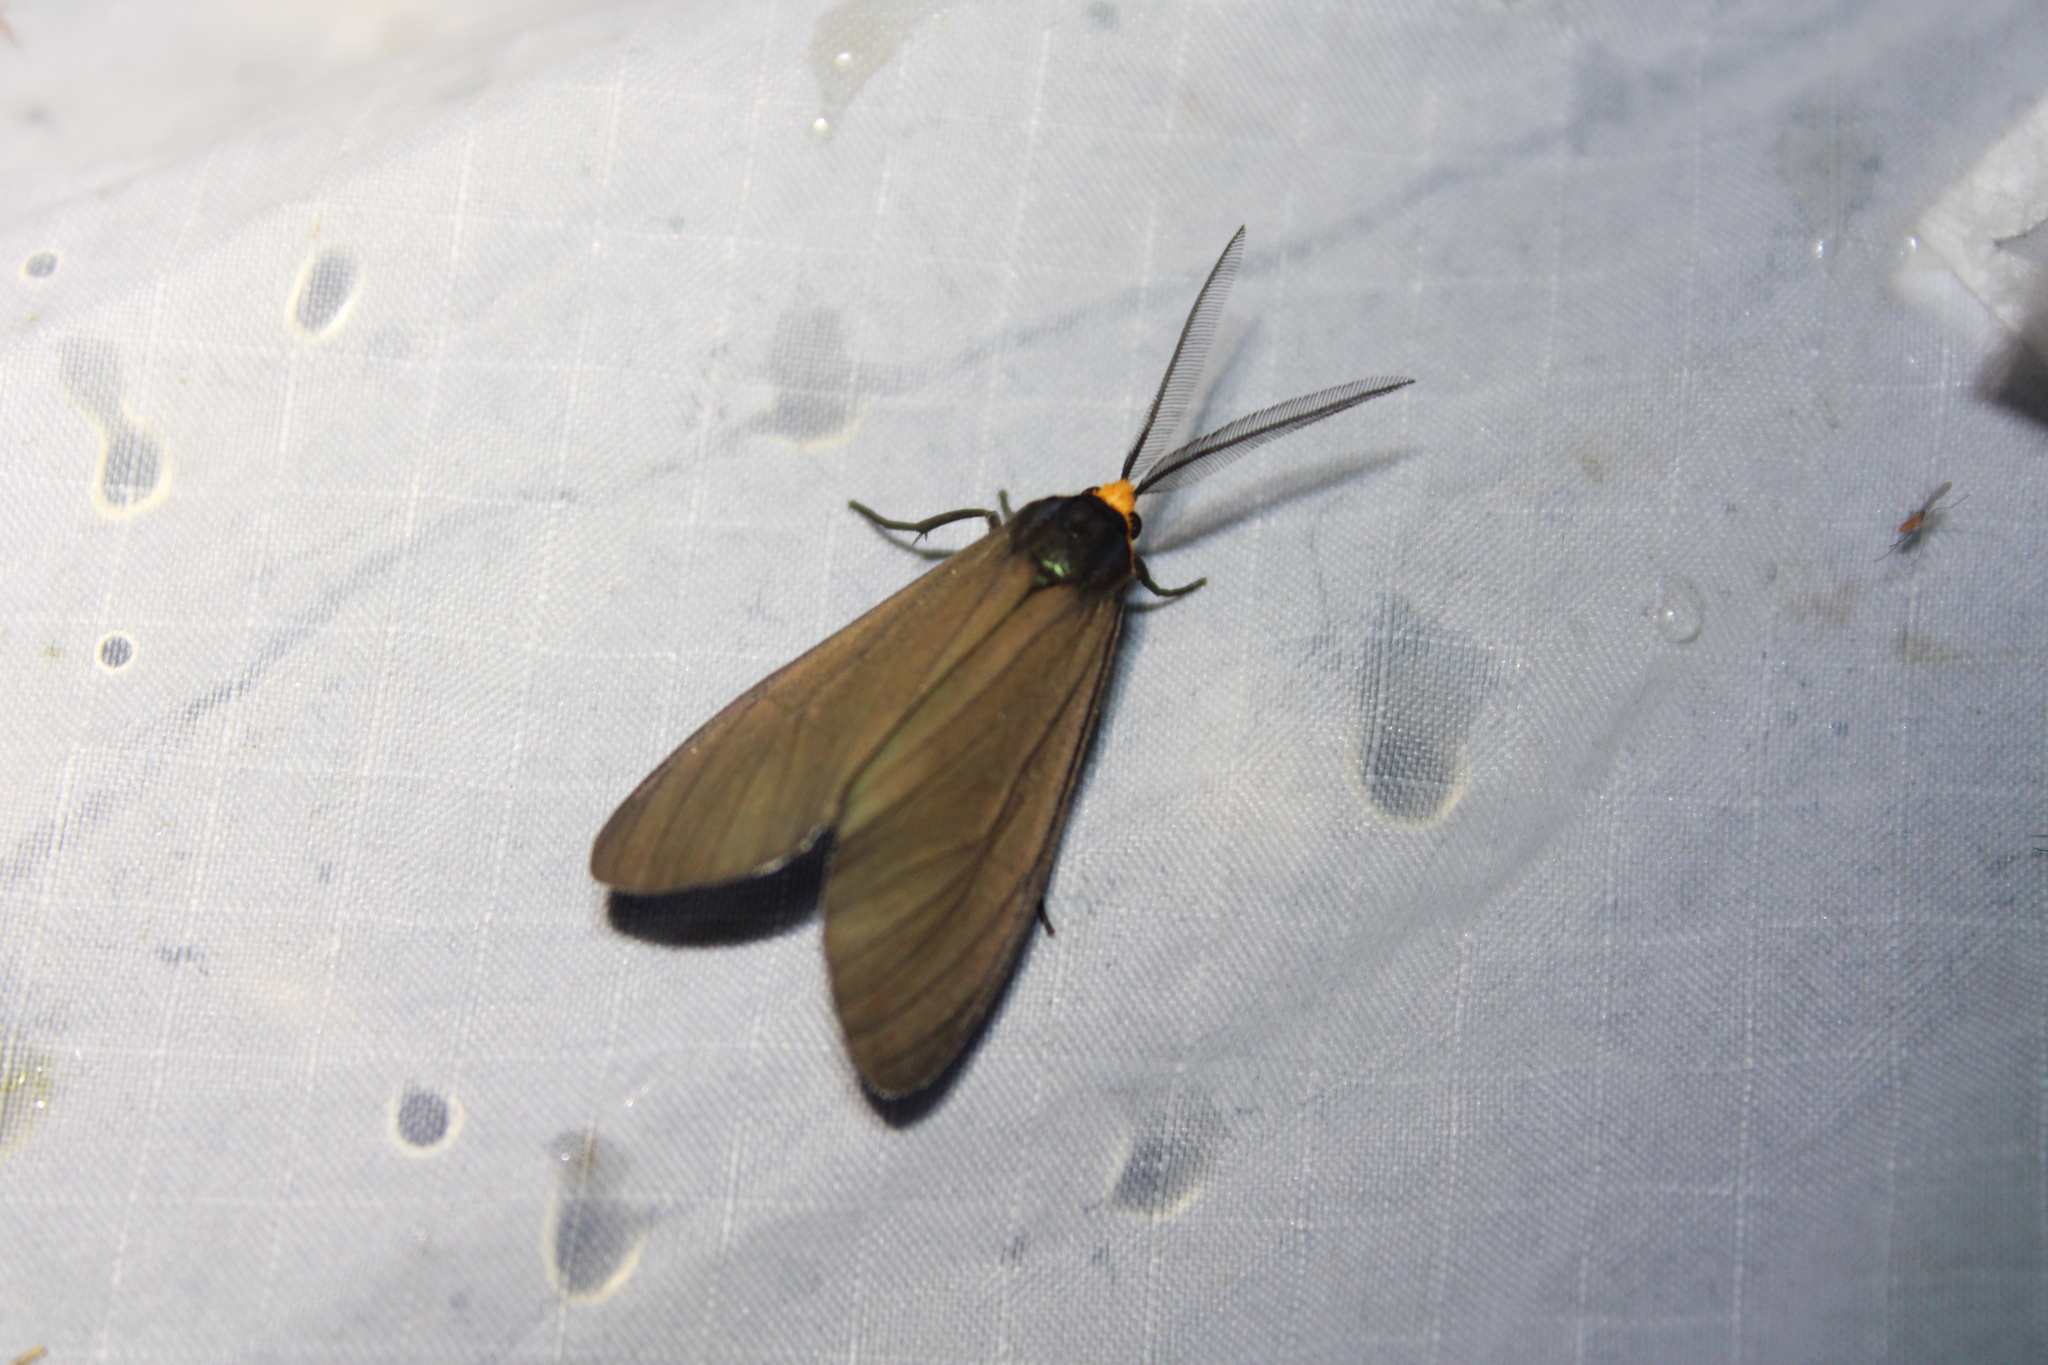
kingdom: Animalia
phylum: Arthropoda
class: Insecta
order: Lepidoptera
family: Erebidae
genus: Ctenucha
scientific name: Ctenucha virginica
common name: Virginia ctenucha moth
